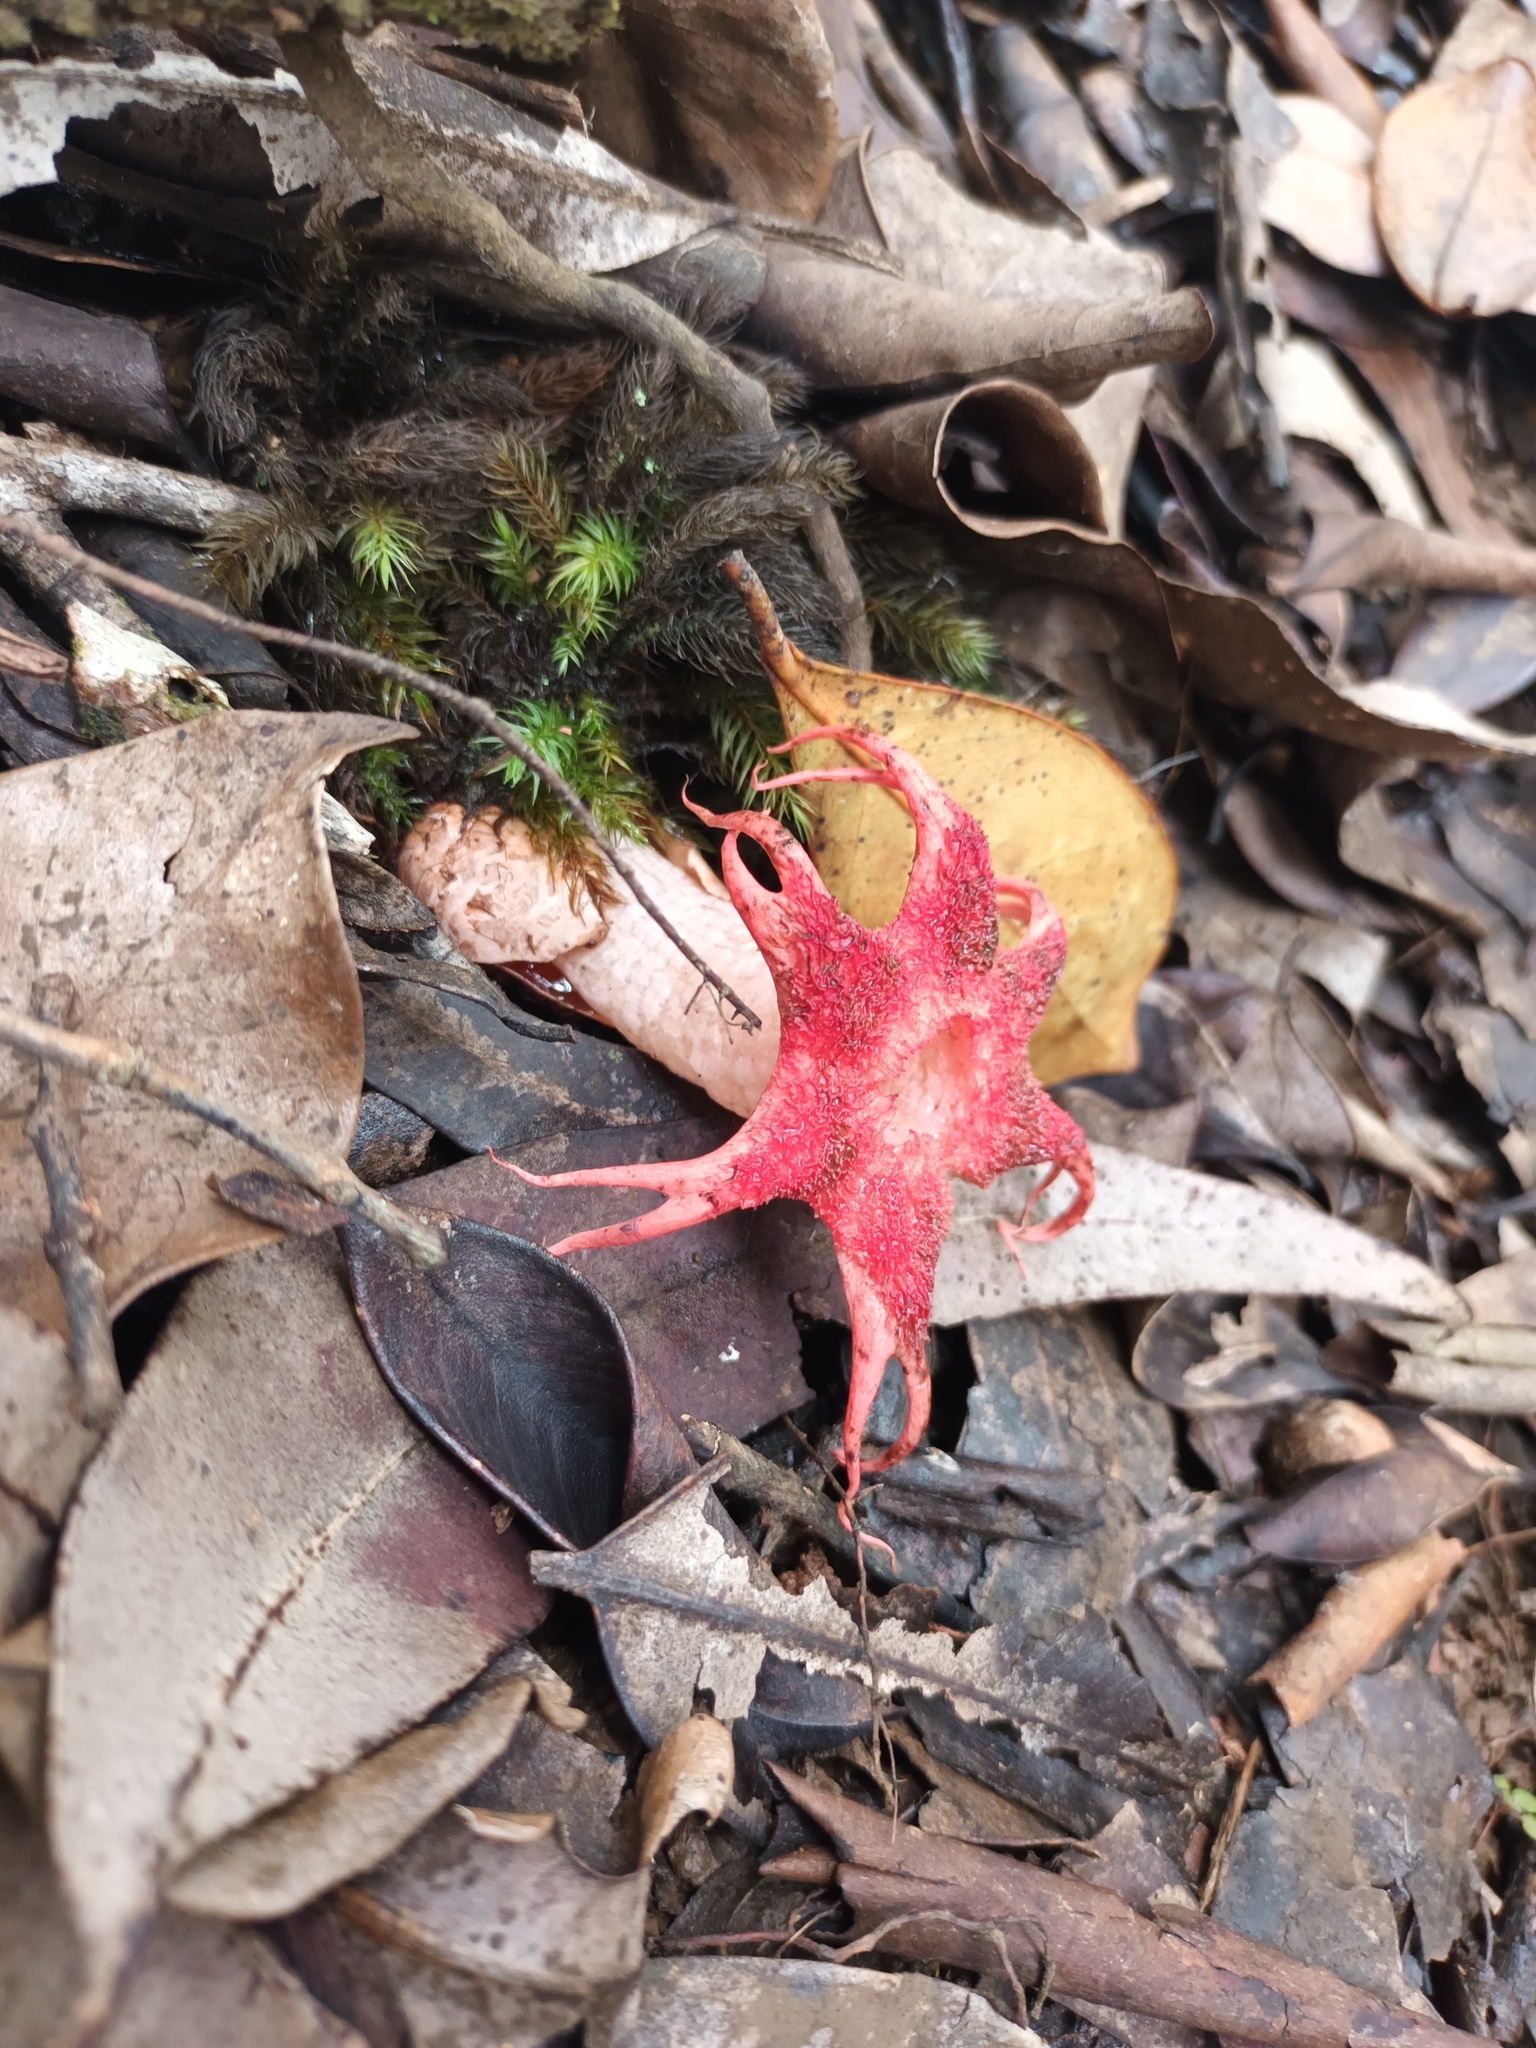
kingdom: Fungi
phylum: Basidiomycota
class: Agaricomycetes
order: Phallales
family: Phallaceae
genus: Aseroe
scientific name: Aseroe rubra
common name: Starfish fungus
